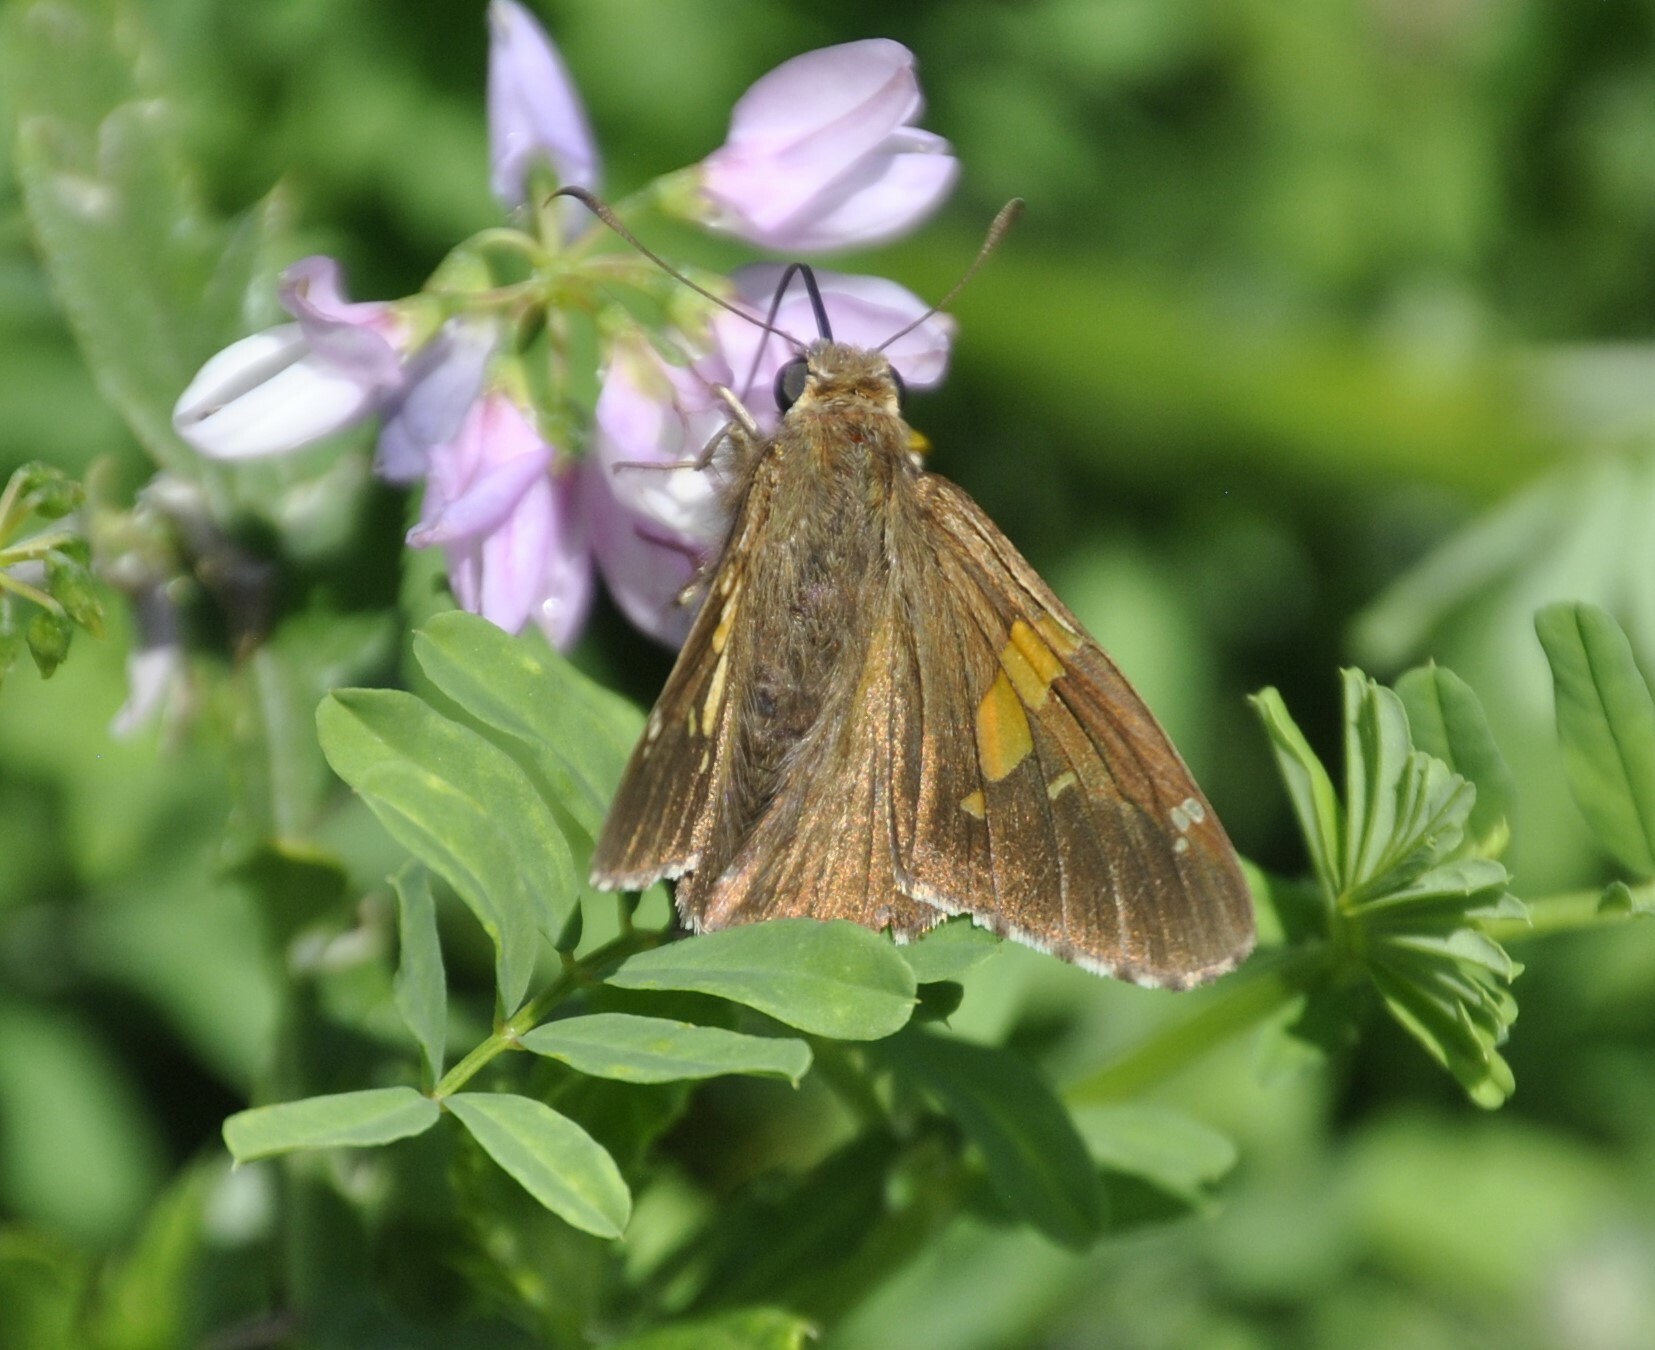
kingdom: Animalia
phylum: Arthropoda
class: Insecta
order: Lepidoptera
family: Hesperiidae
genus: Epargyreus
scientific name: Epargyreus clarus
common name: Silver-spotted skipper
